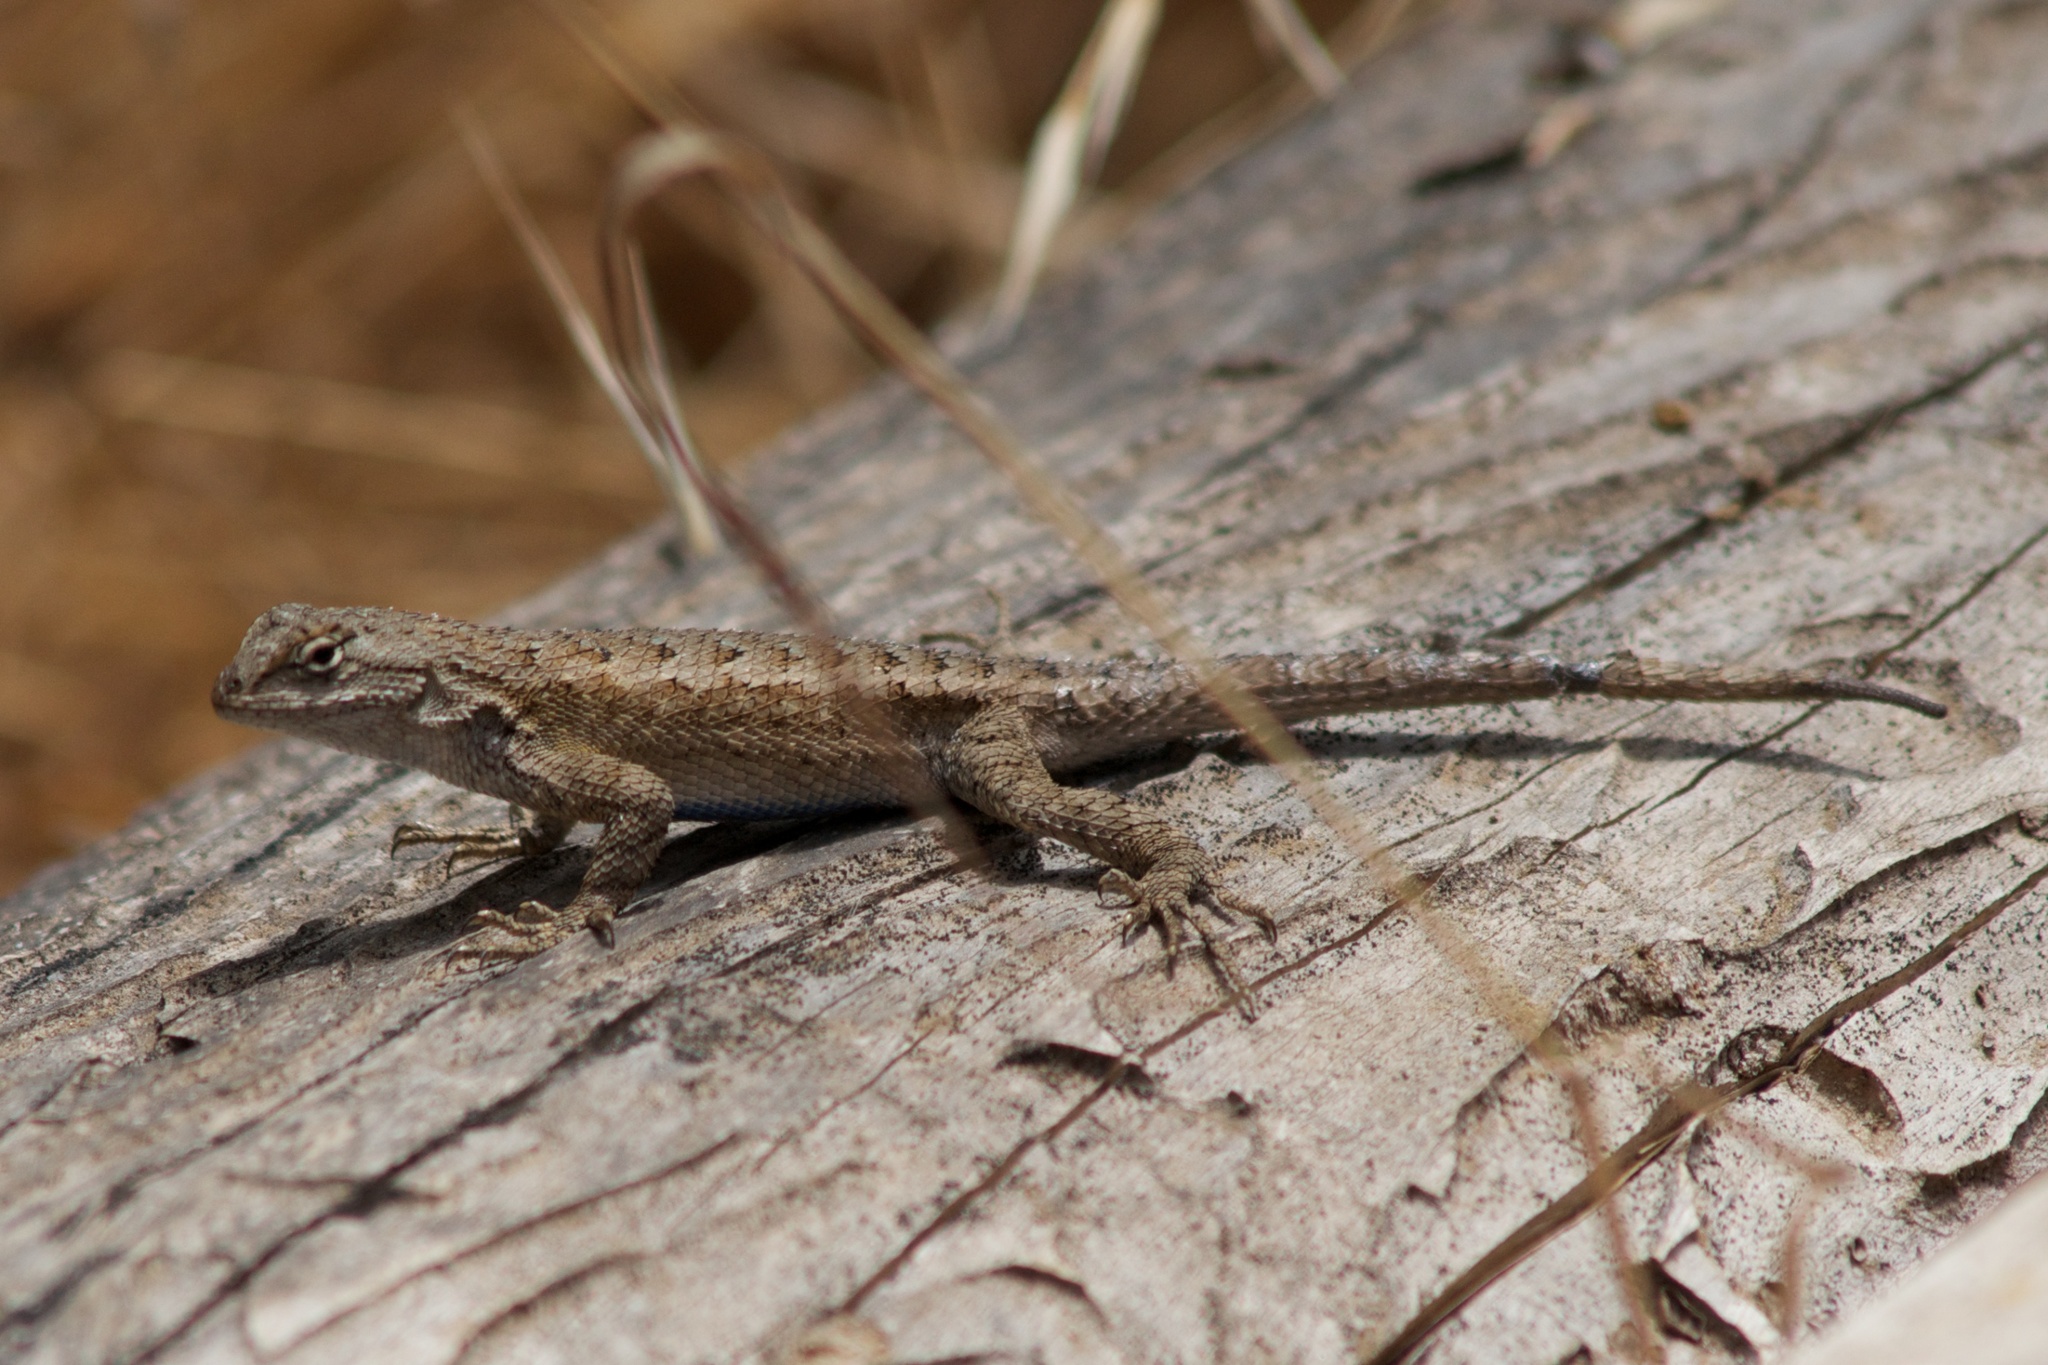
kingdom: Animalia
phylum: Chordata
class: Squamata
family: Phrynosomatidae
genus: Sceloporus
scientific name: Sceloporus occidentalis
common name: Western fence lizard
